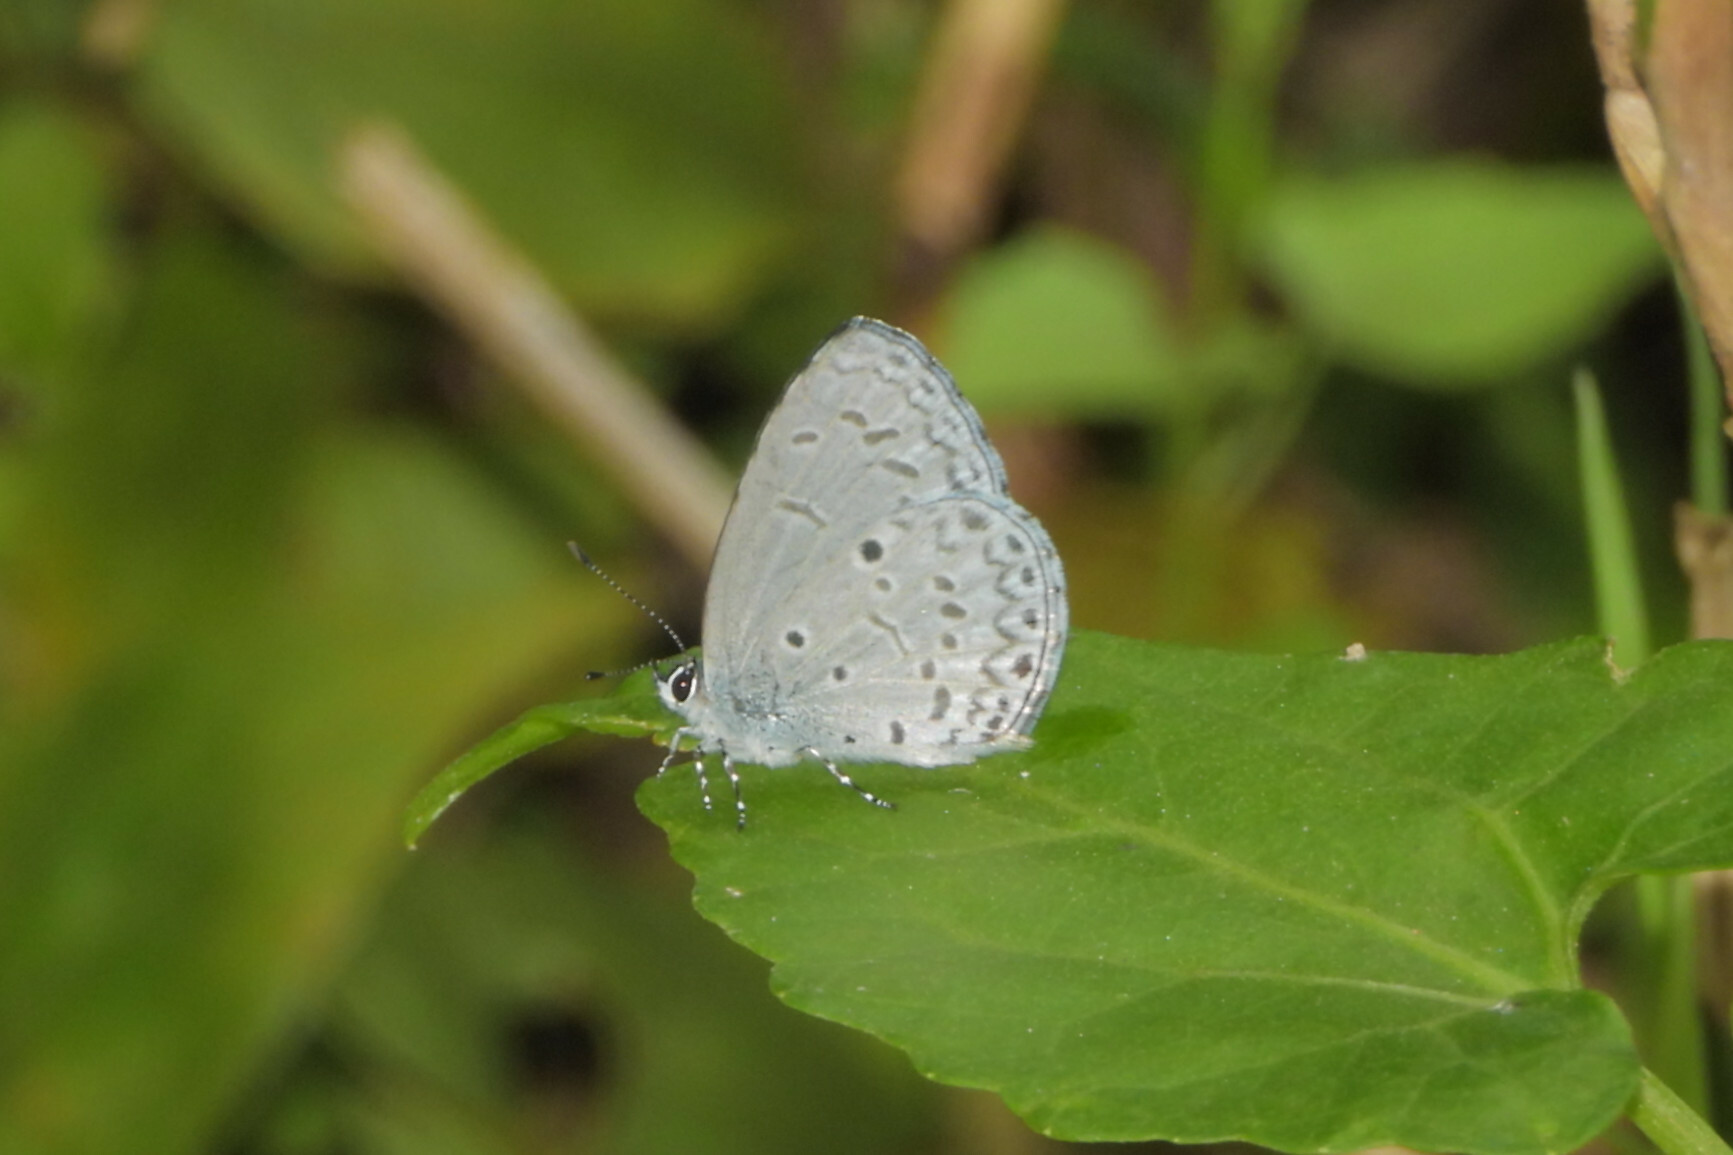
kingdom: Animalia
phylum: Arthropoda
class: Insecta
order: Lepidoptera
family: Lycaenidae
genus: Celastrina
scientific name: Celastrina lavendularis
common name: Plain hedge blue
